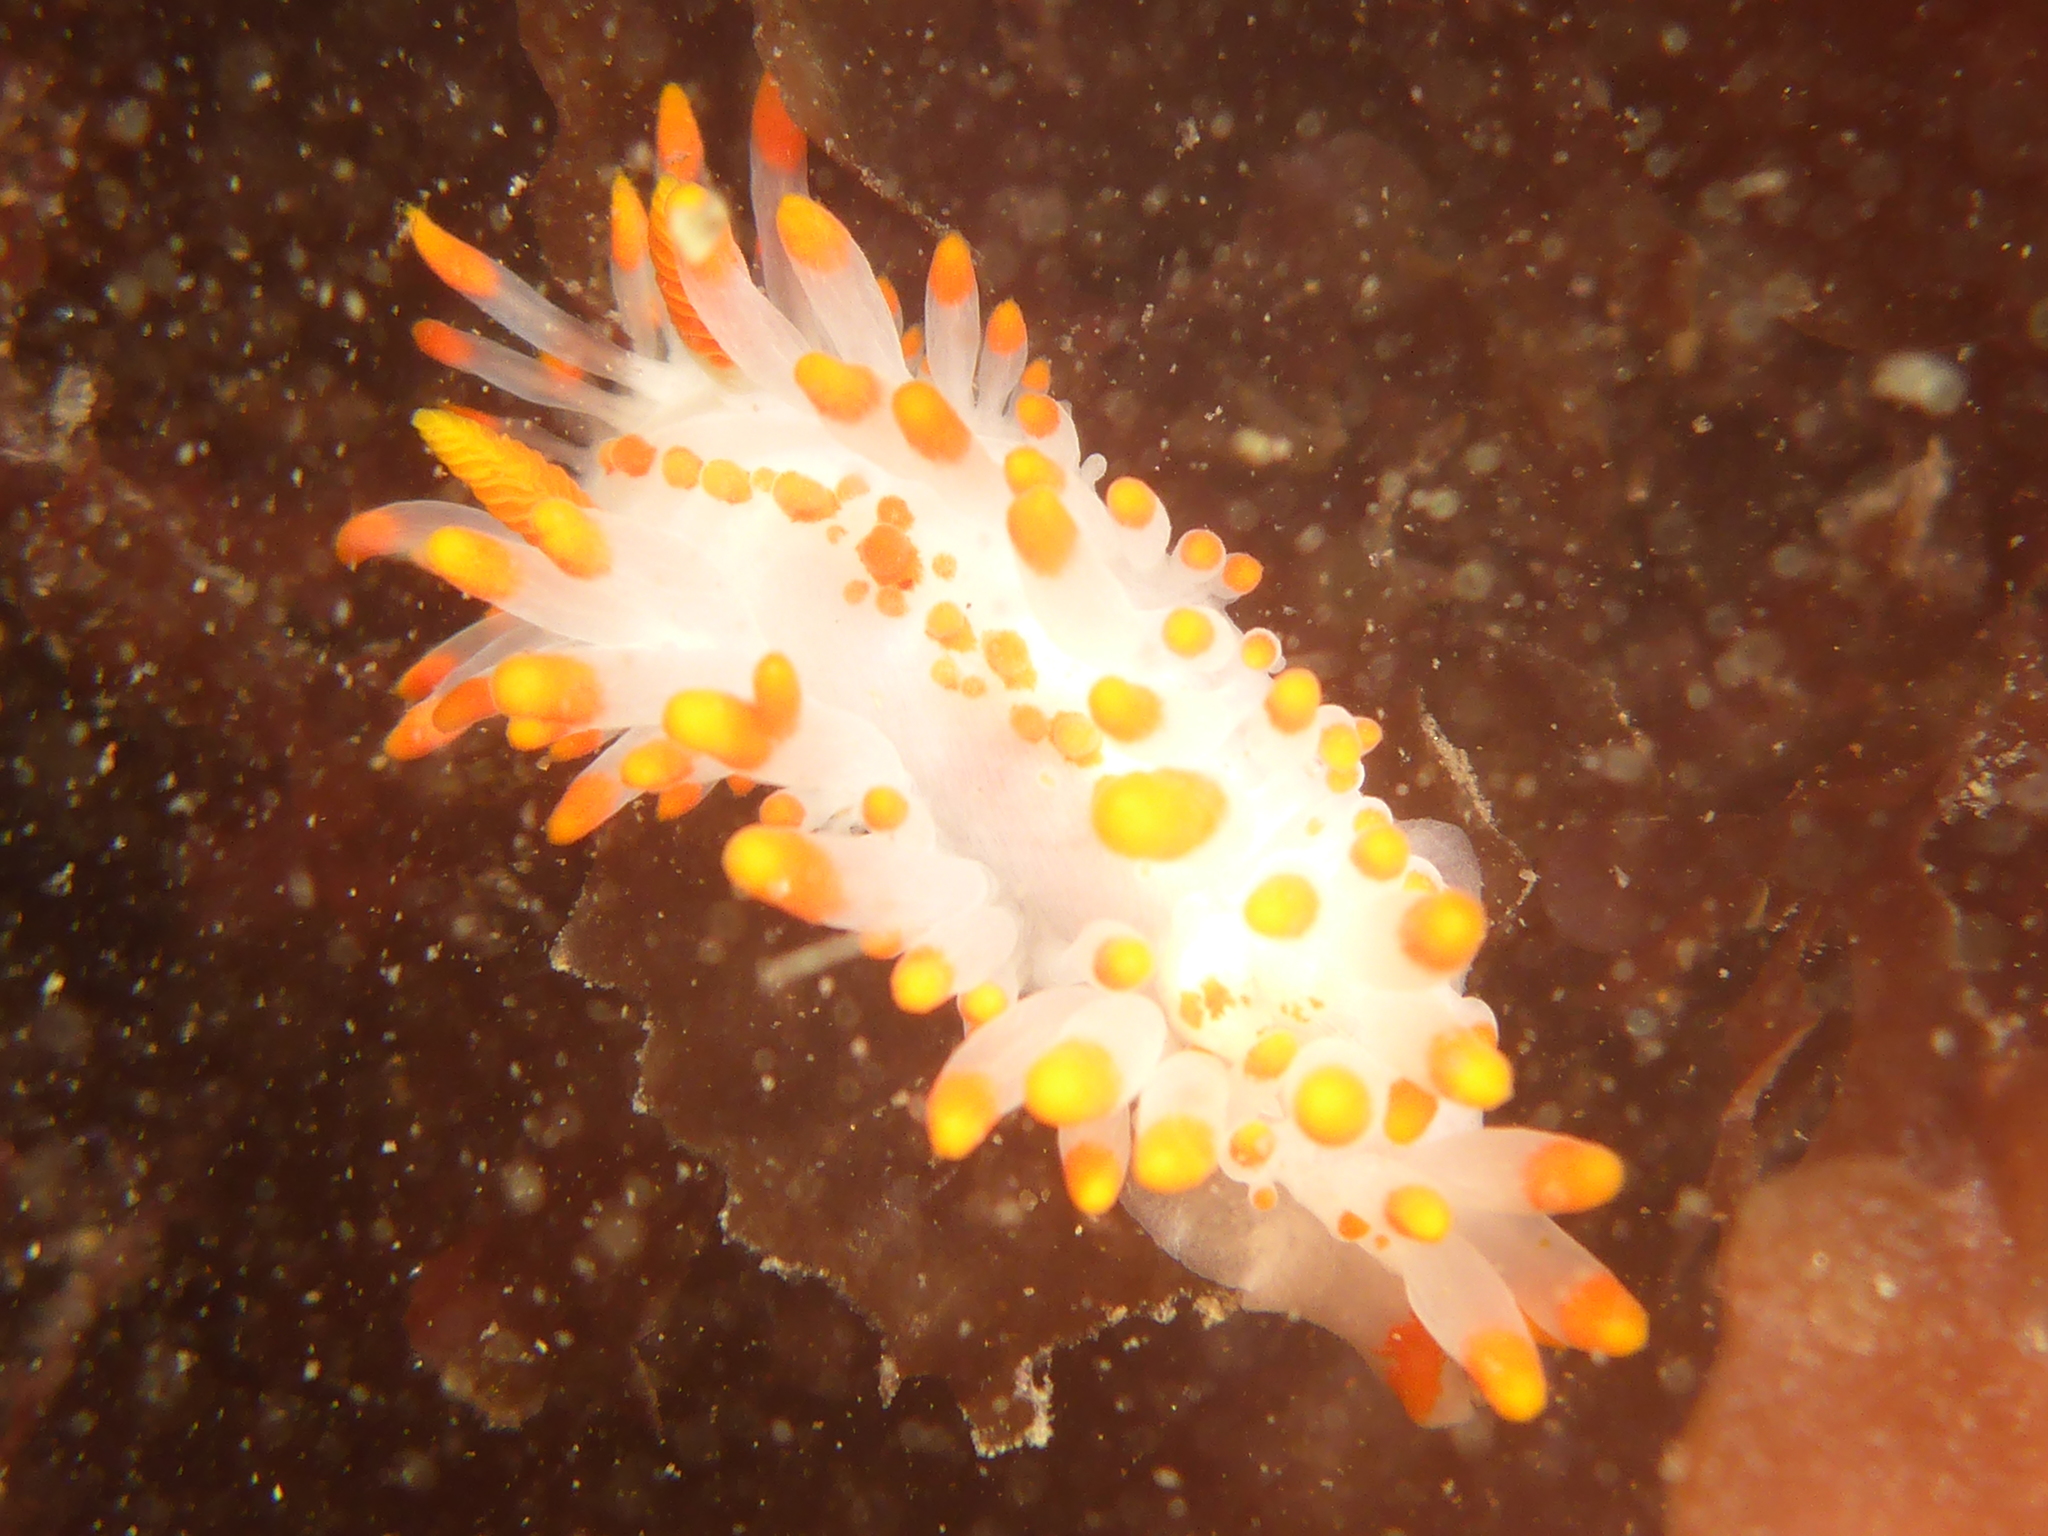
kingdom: Animalia
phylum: Mollusca
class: Gastropoda
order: Nudibranchia
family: Polyceridae
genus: Limacia
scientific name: Limacia mcdonaldi
